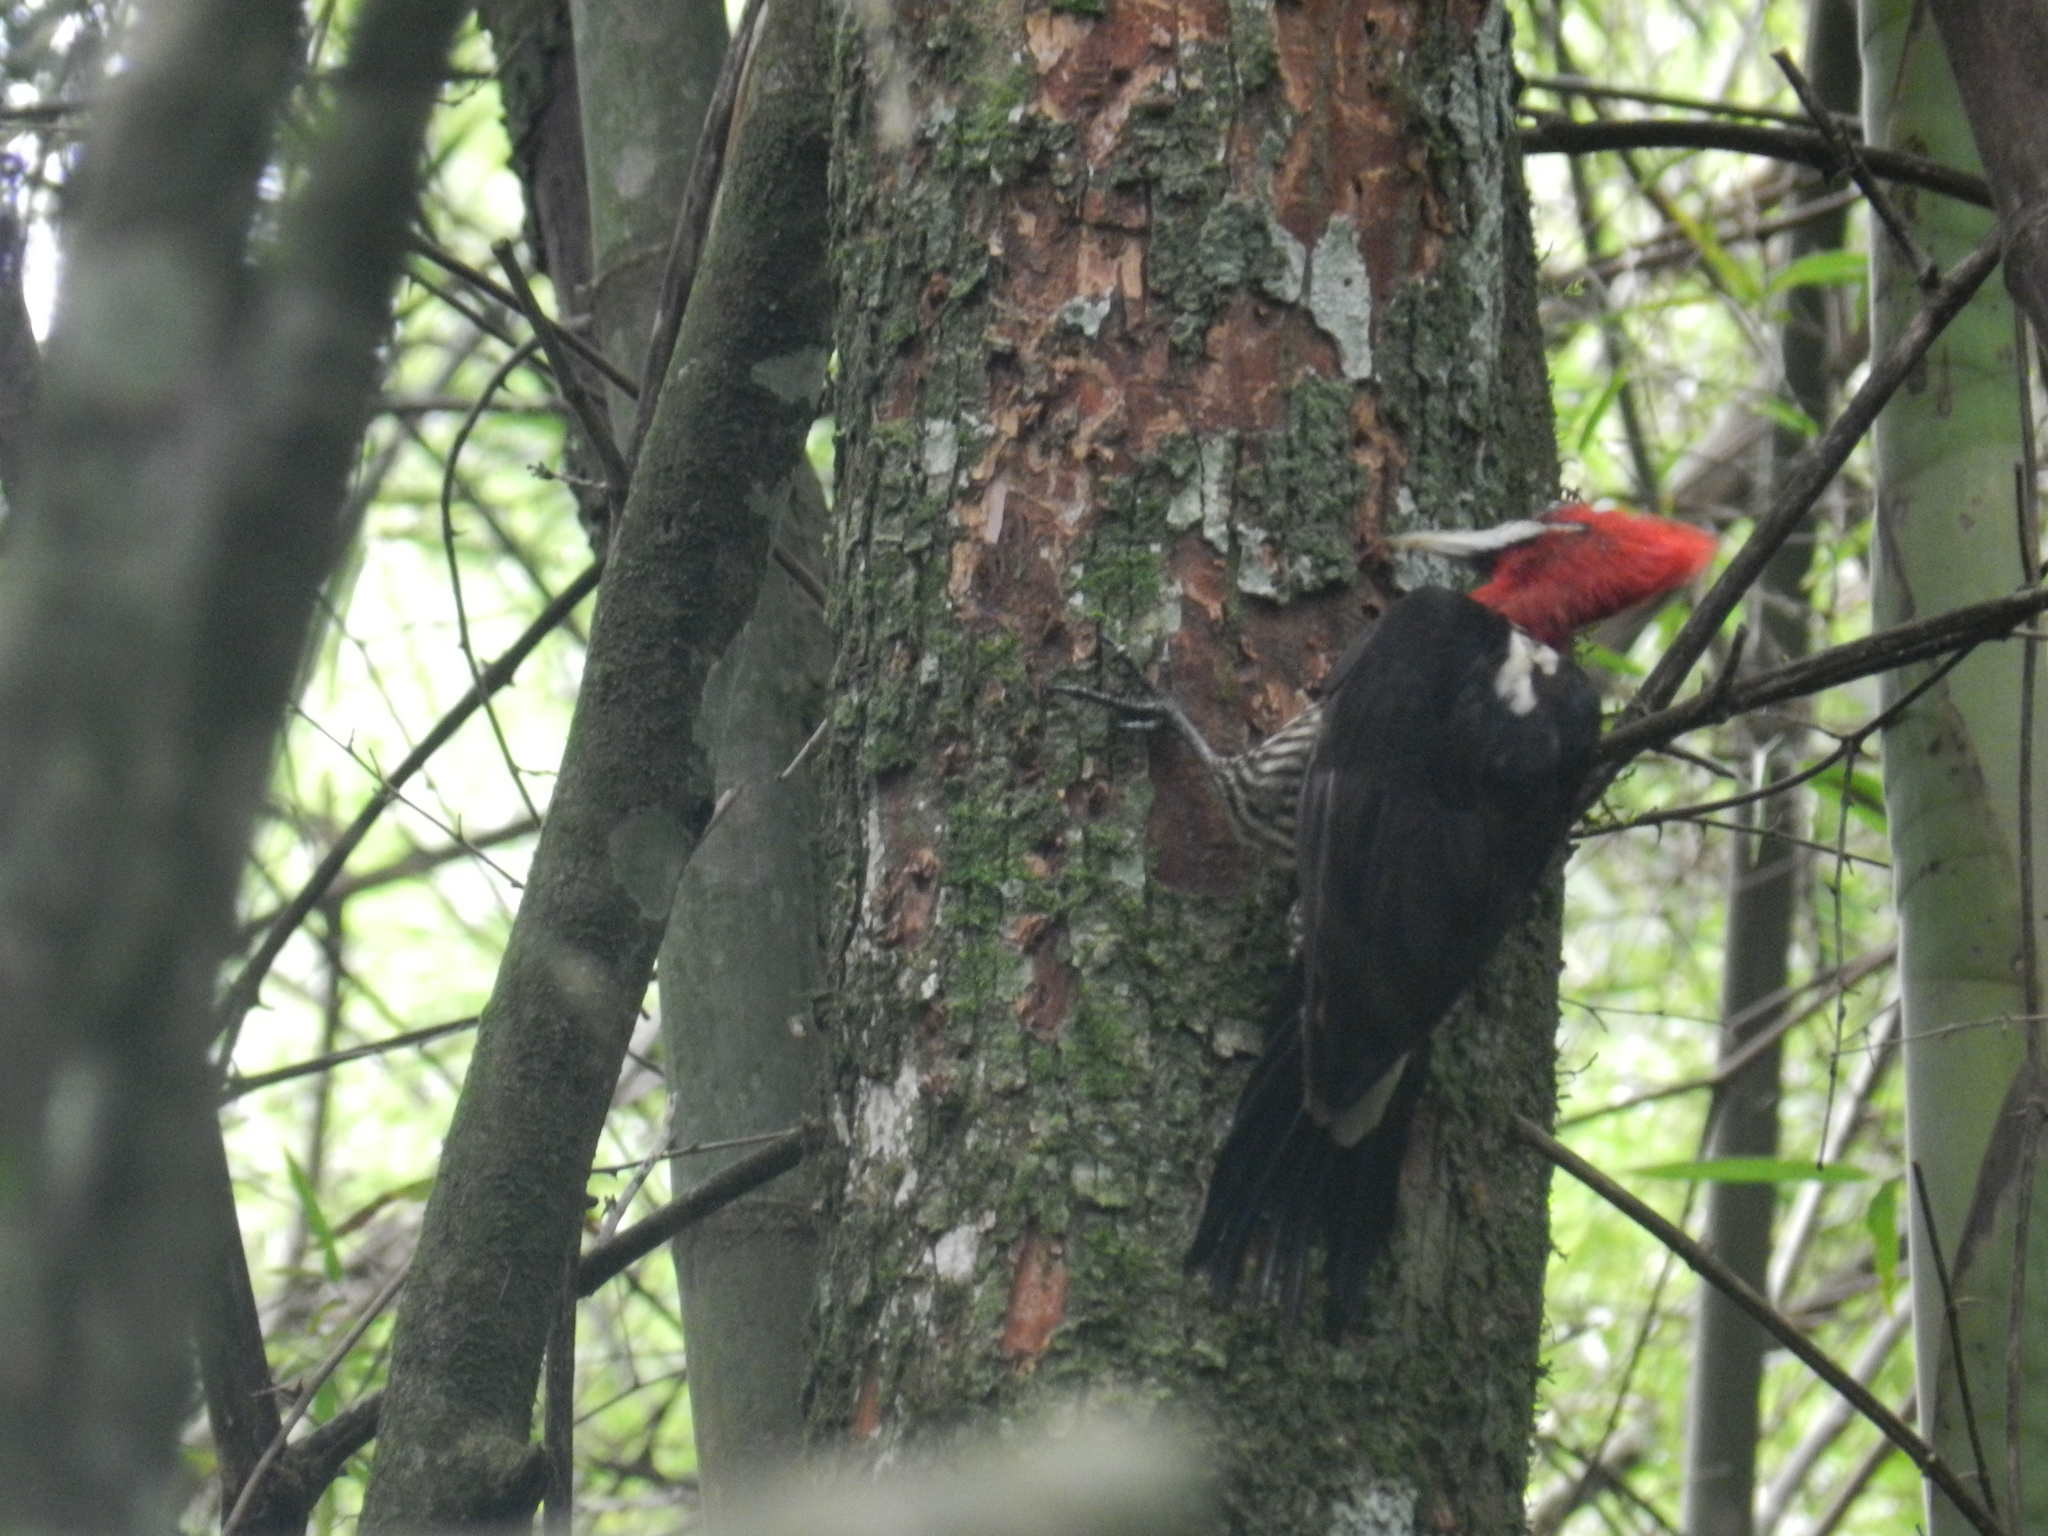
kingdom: Animalia
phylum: Chordata
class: Aves
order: Piciformes
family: Picidae
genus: Campephilus
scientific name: Campephilus robustus
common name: Robust woodpecker
